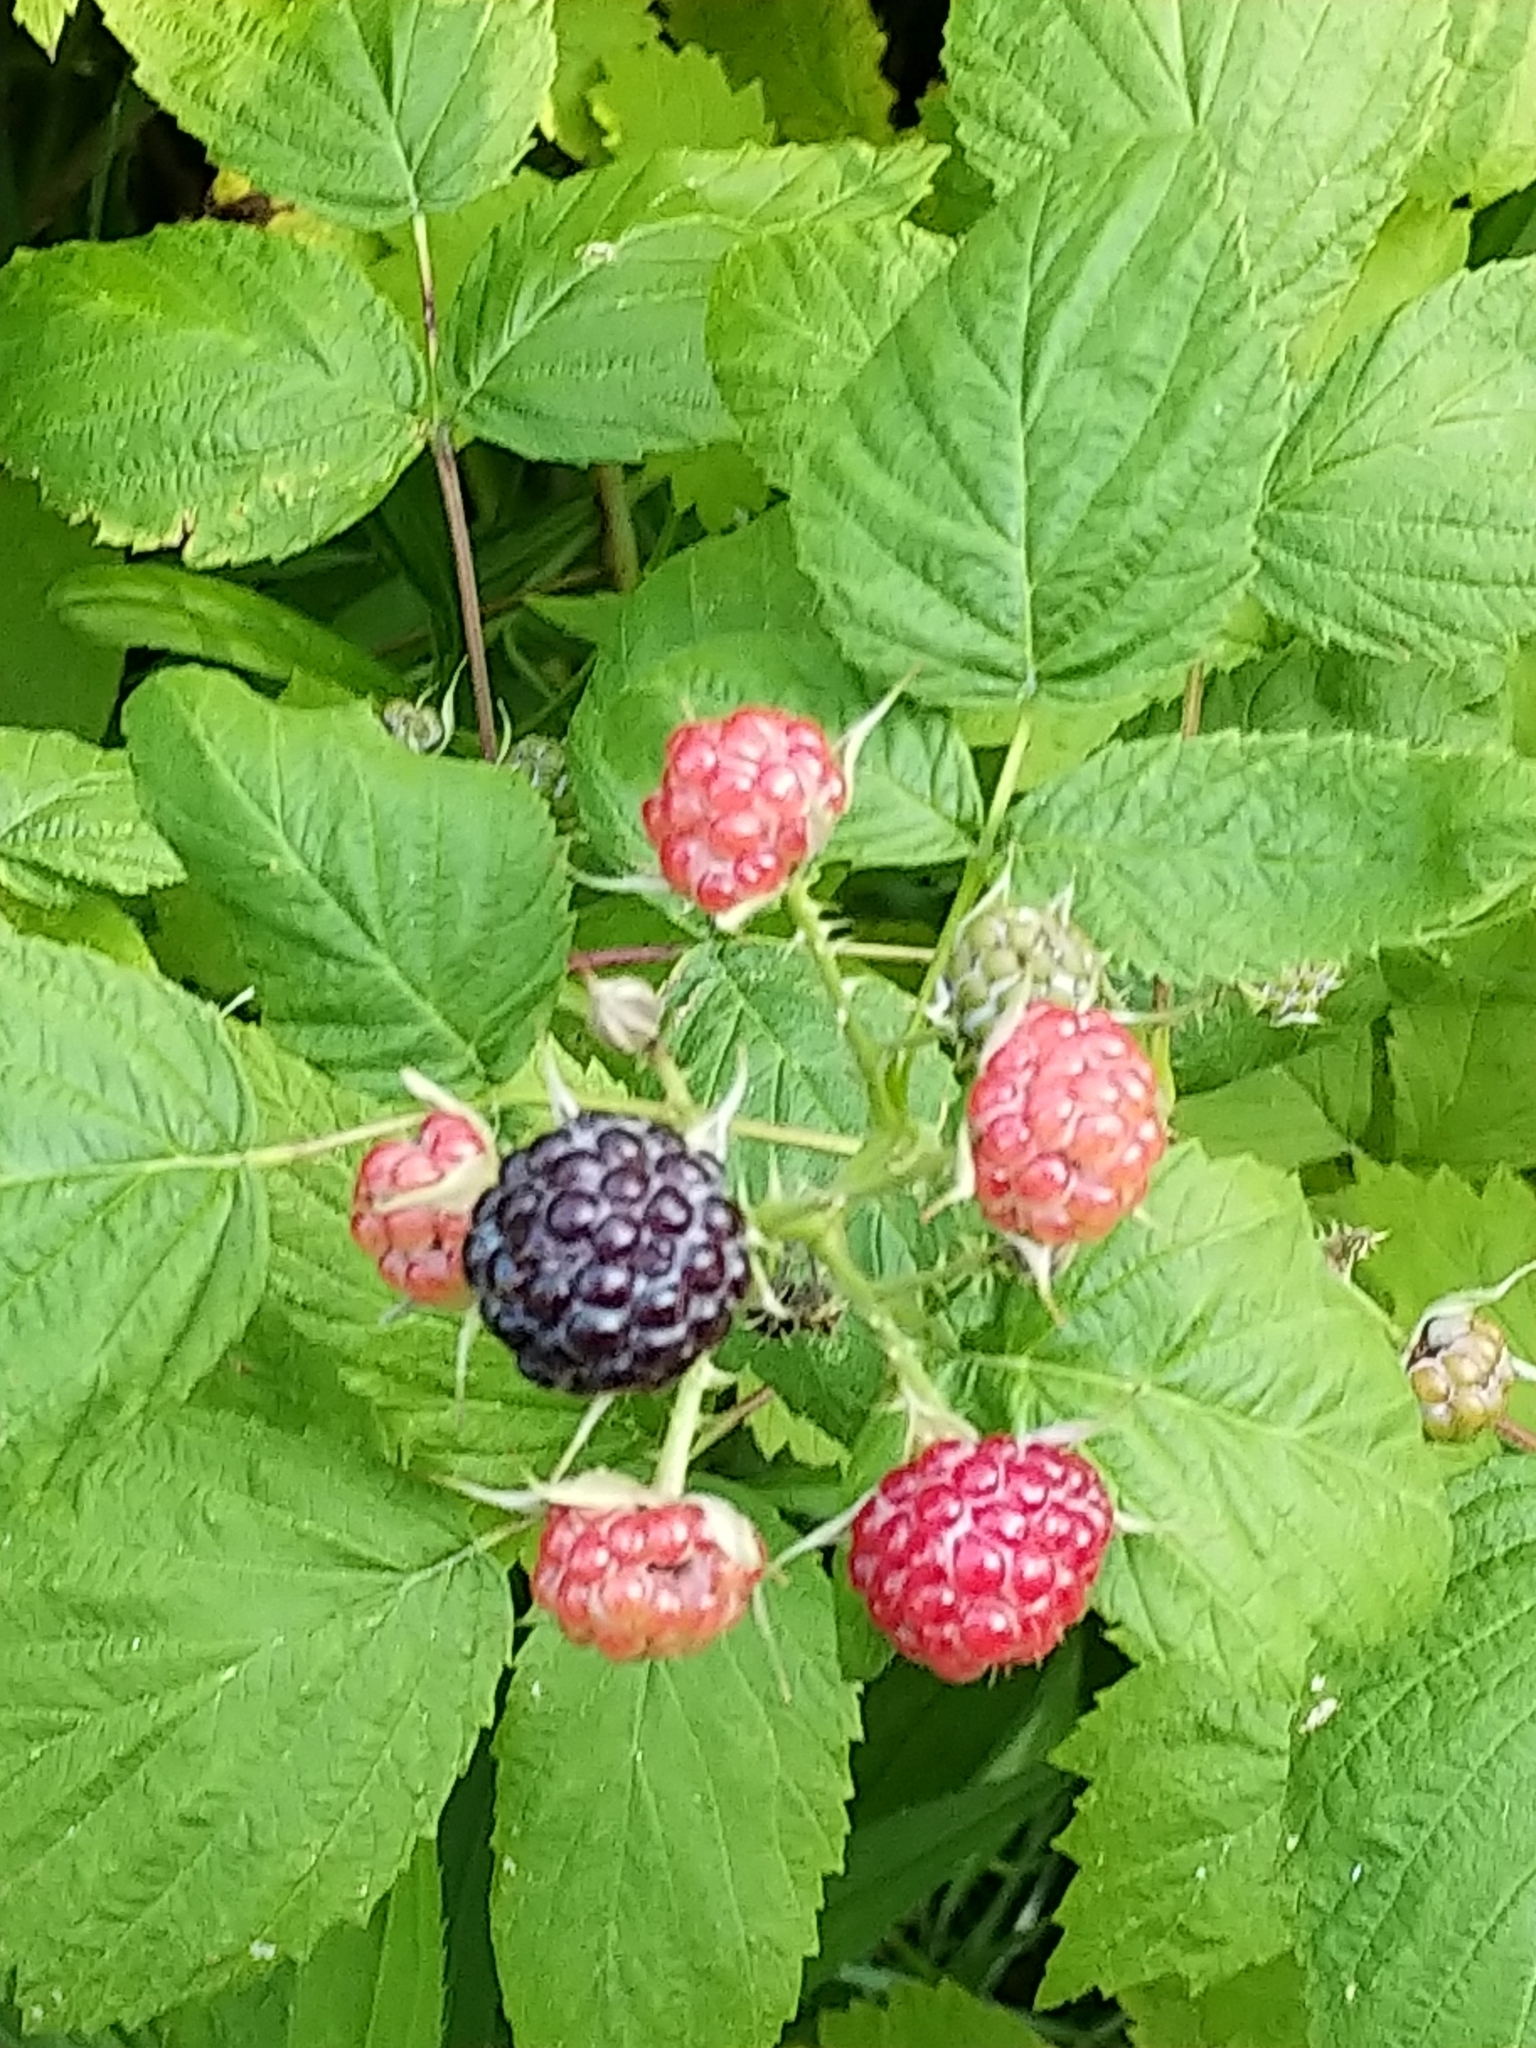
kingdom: Plantae
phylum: Tracheophyta
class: Magnoliopsida
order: Rosales
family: Rosaceae
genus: Rubus
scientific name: Rubus occidentalis
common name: Black raspberry
